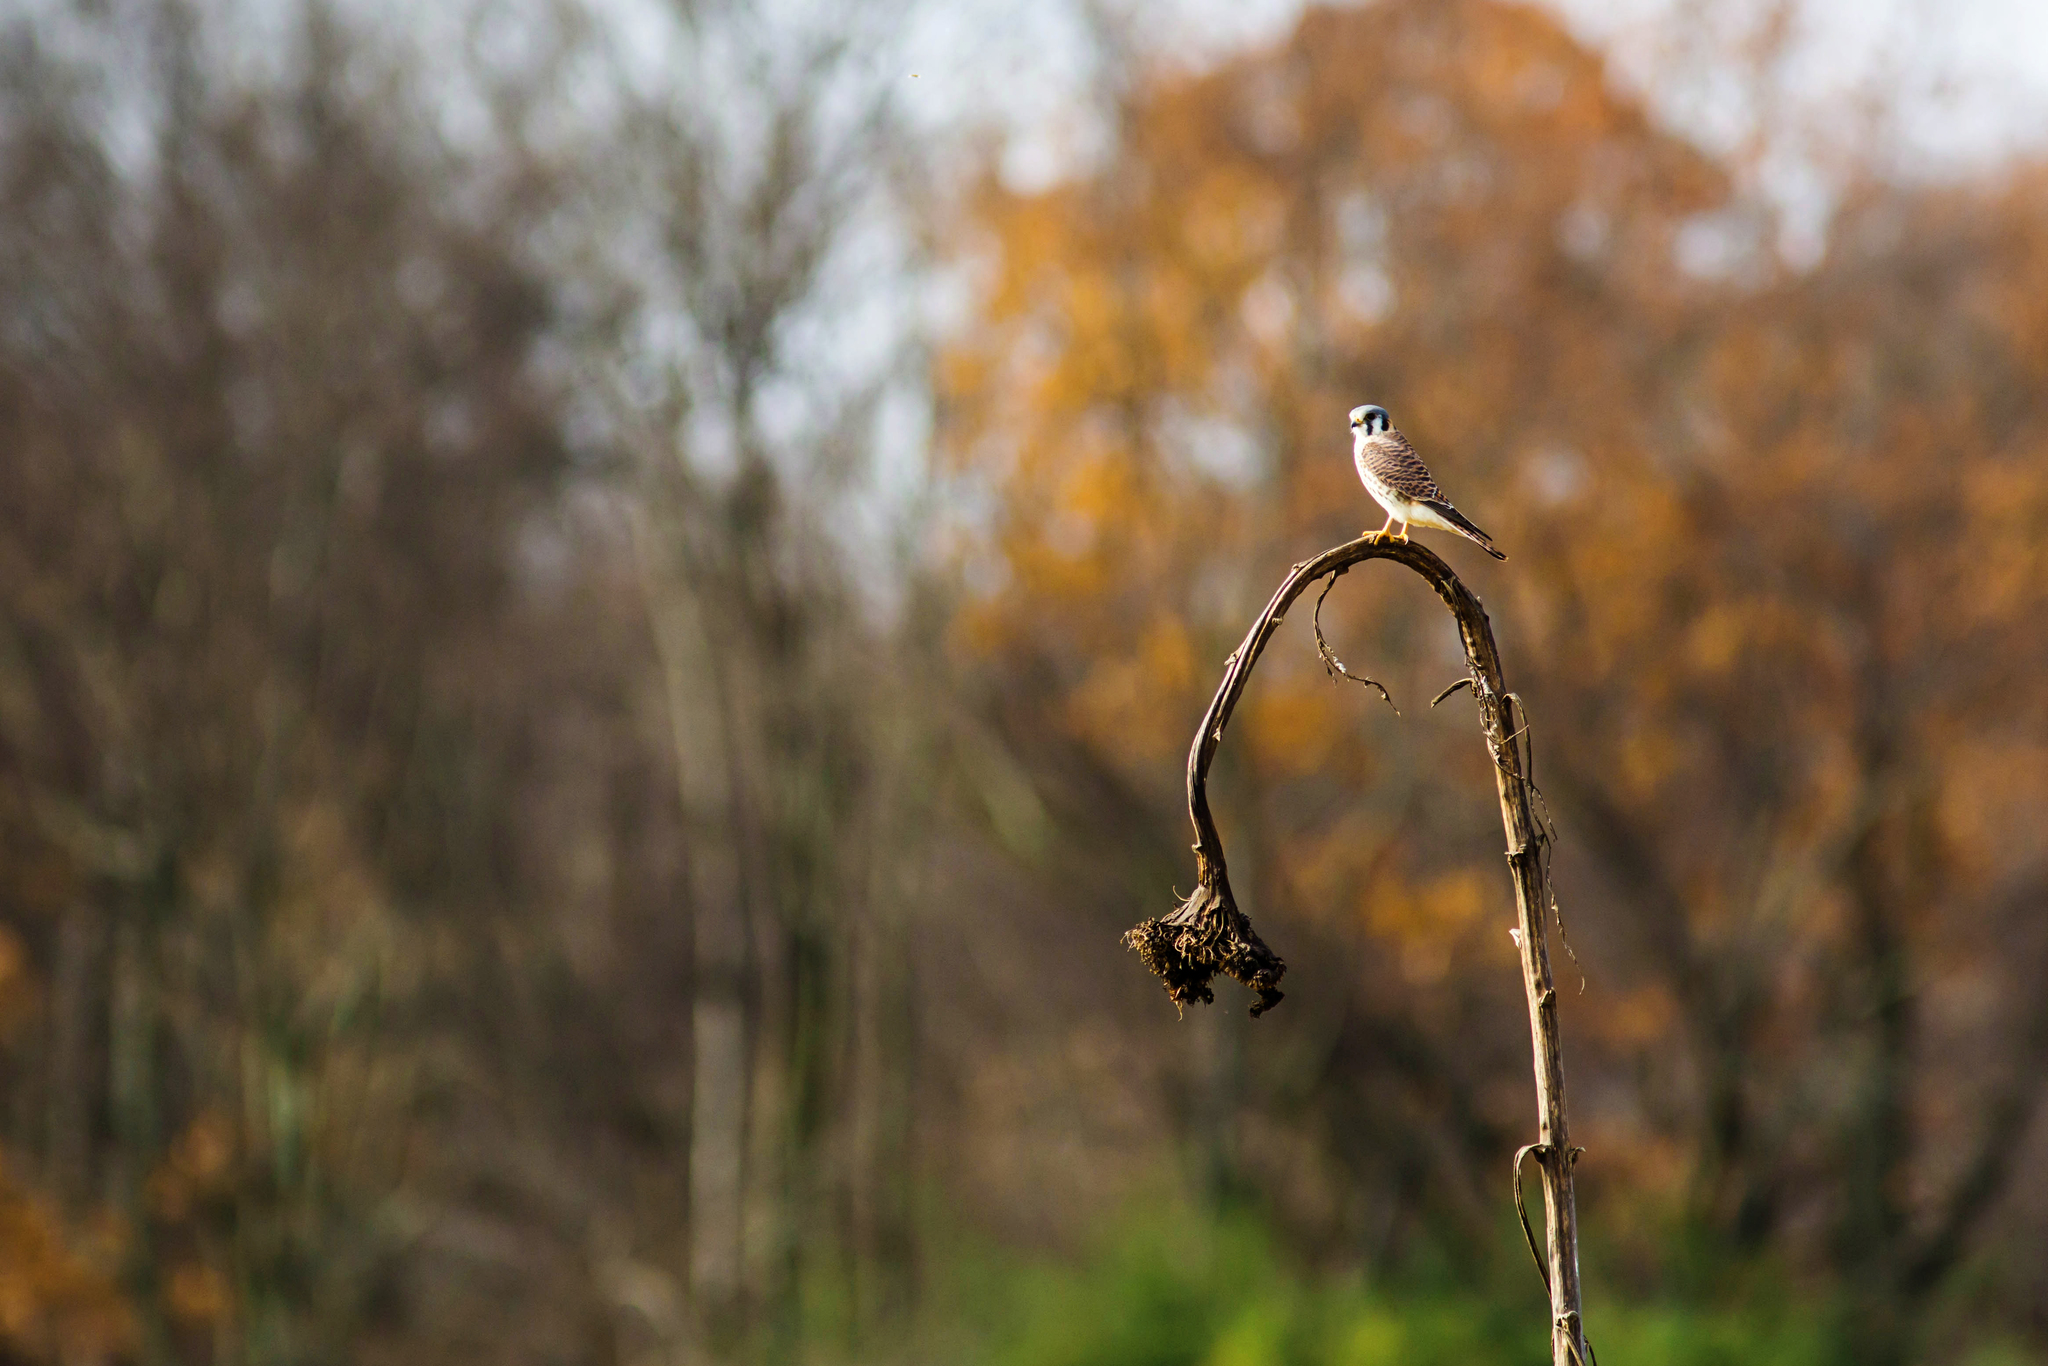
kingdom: Animalia
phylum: Chordata
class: Aves
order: Falconiformes
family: Falconidae
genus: Falco
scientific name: Falco sparverius
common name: American kestrel
